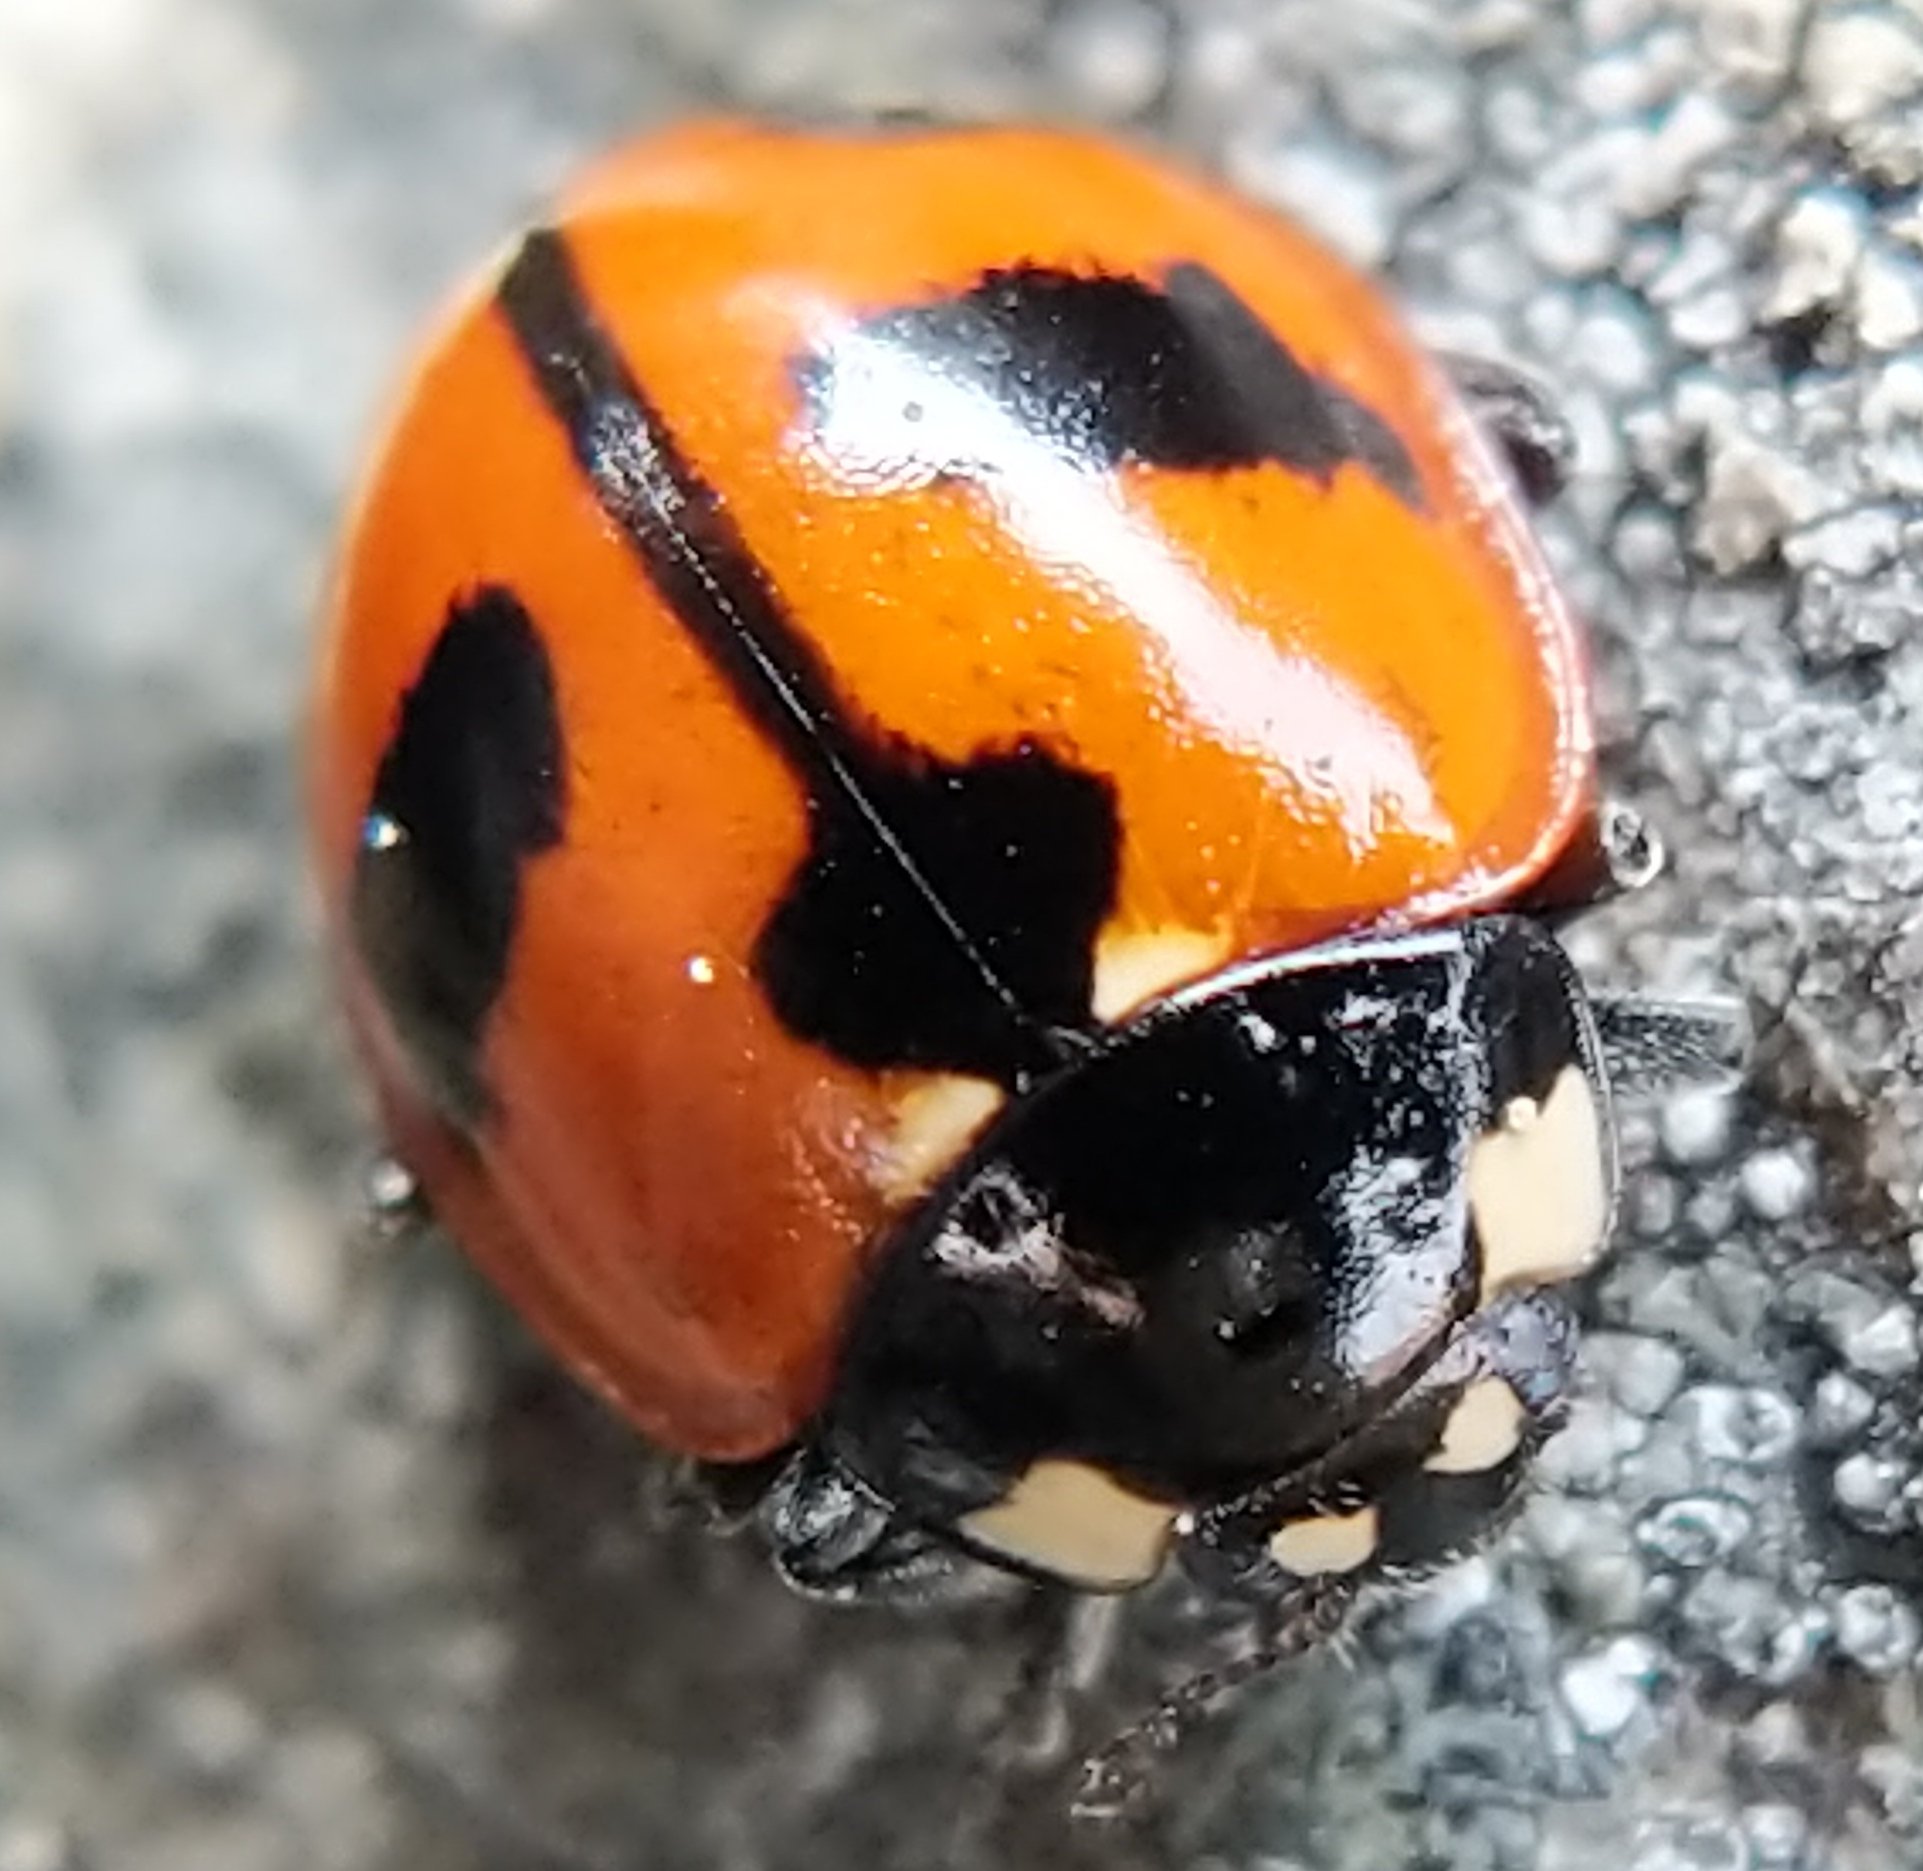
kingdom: Animalia
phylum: Arthropoda
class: Insecta
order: Coleoptera
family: Coccinellidae
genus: Coccinella
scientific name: Coccinella alta
